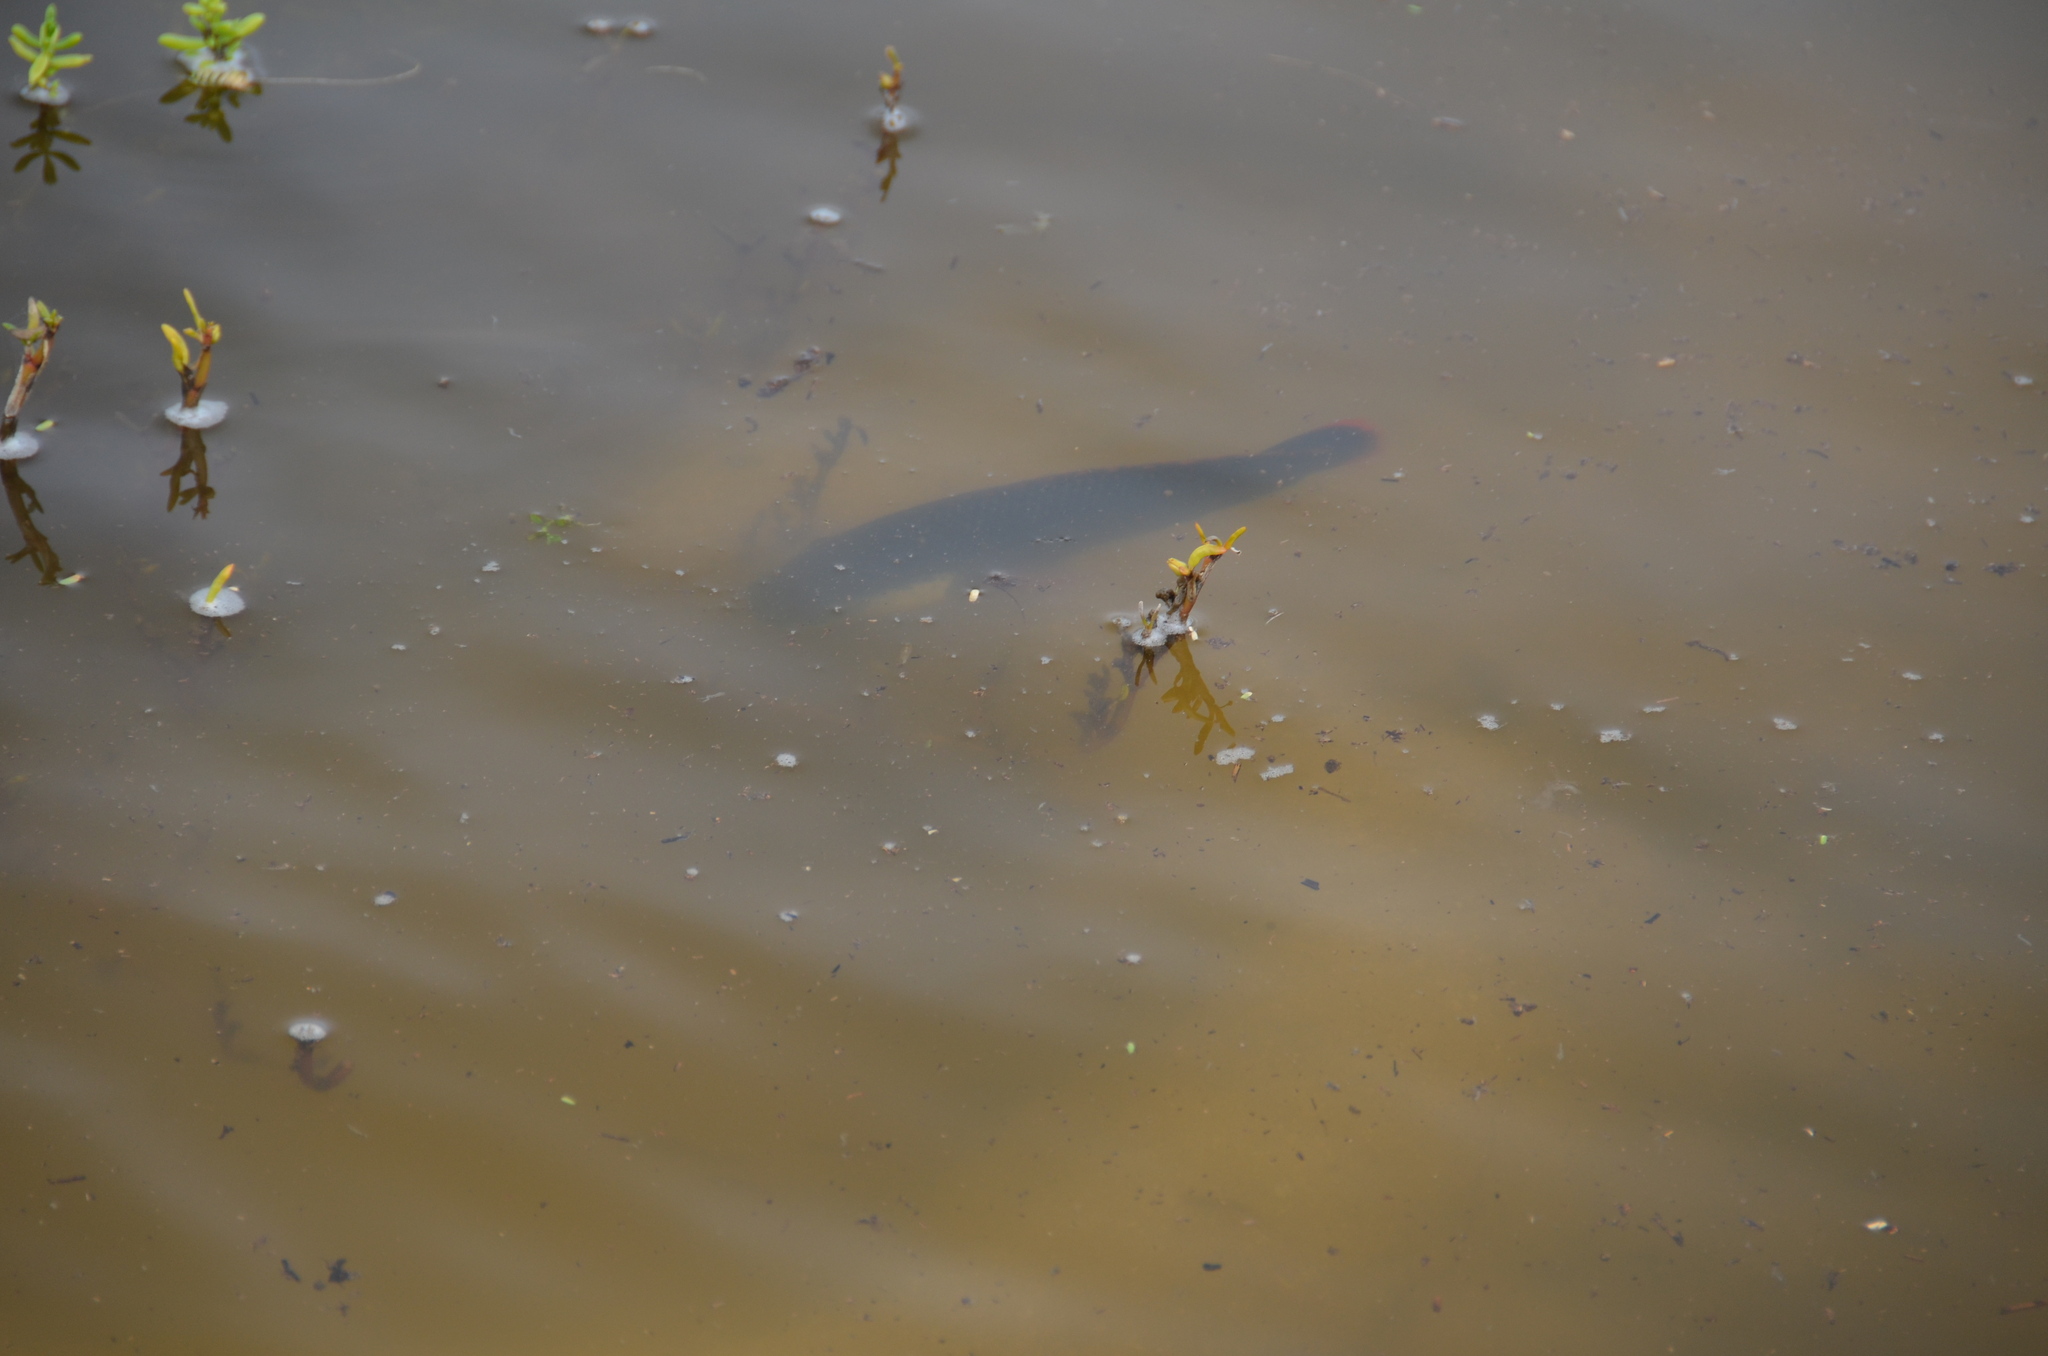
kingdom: Animalia
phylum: Chordata
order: Perciformes
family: Cichlidae
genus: Oreochromis
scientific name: Oreochromis mossambicus
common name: Mozambique tilapia
